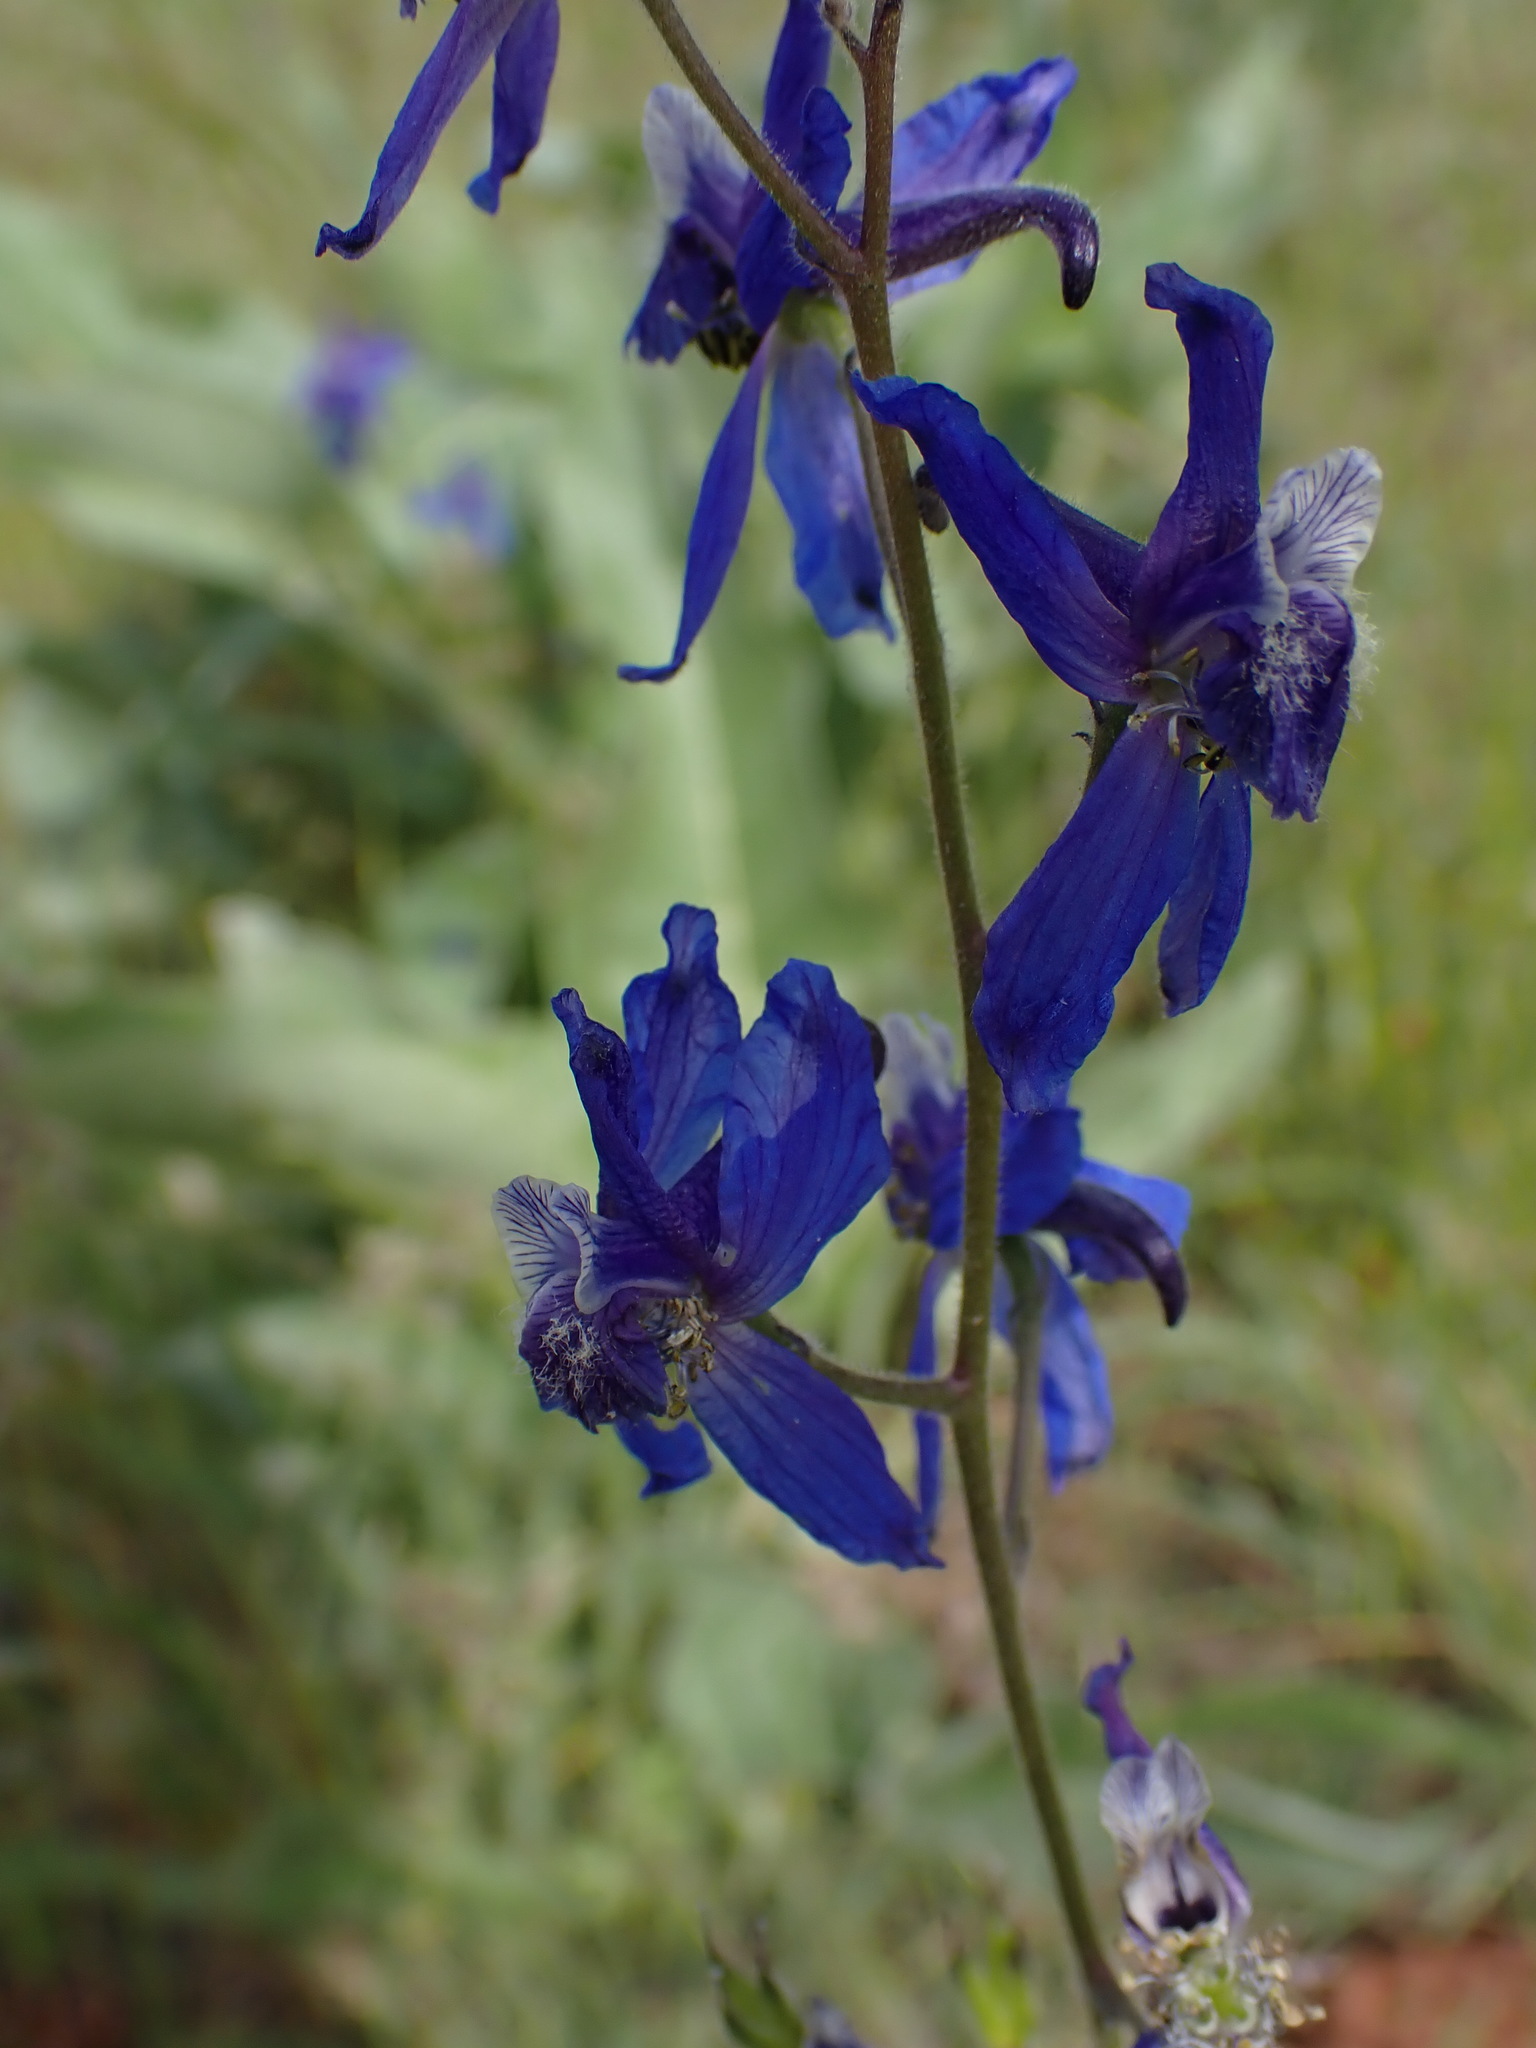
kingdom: Plantae
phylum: Tracheophyta
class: Magnoliopsida
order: Ranunculales
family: Ranunculaceae
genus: Delphinium
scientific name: Delphinium nuttallianum
